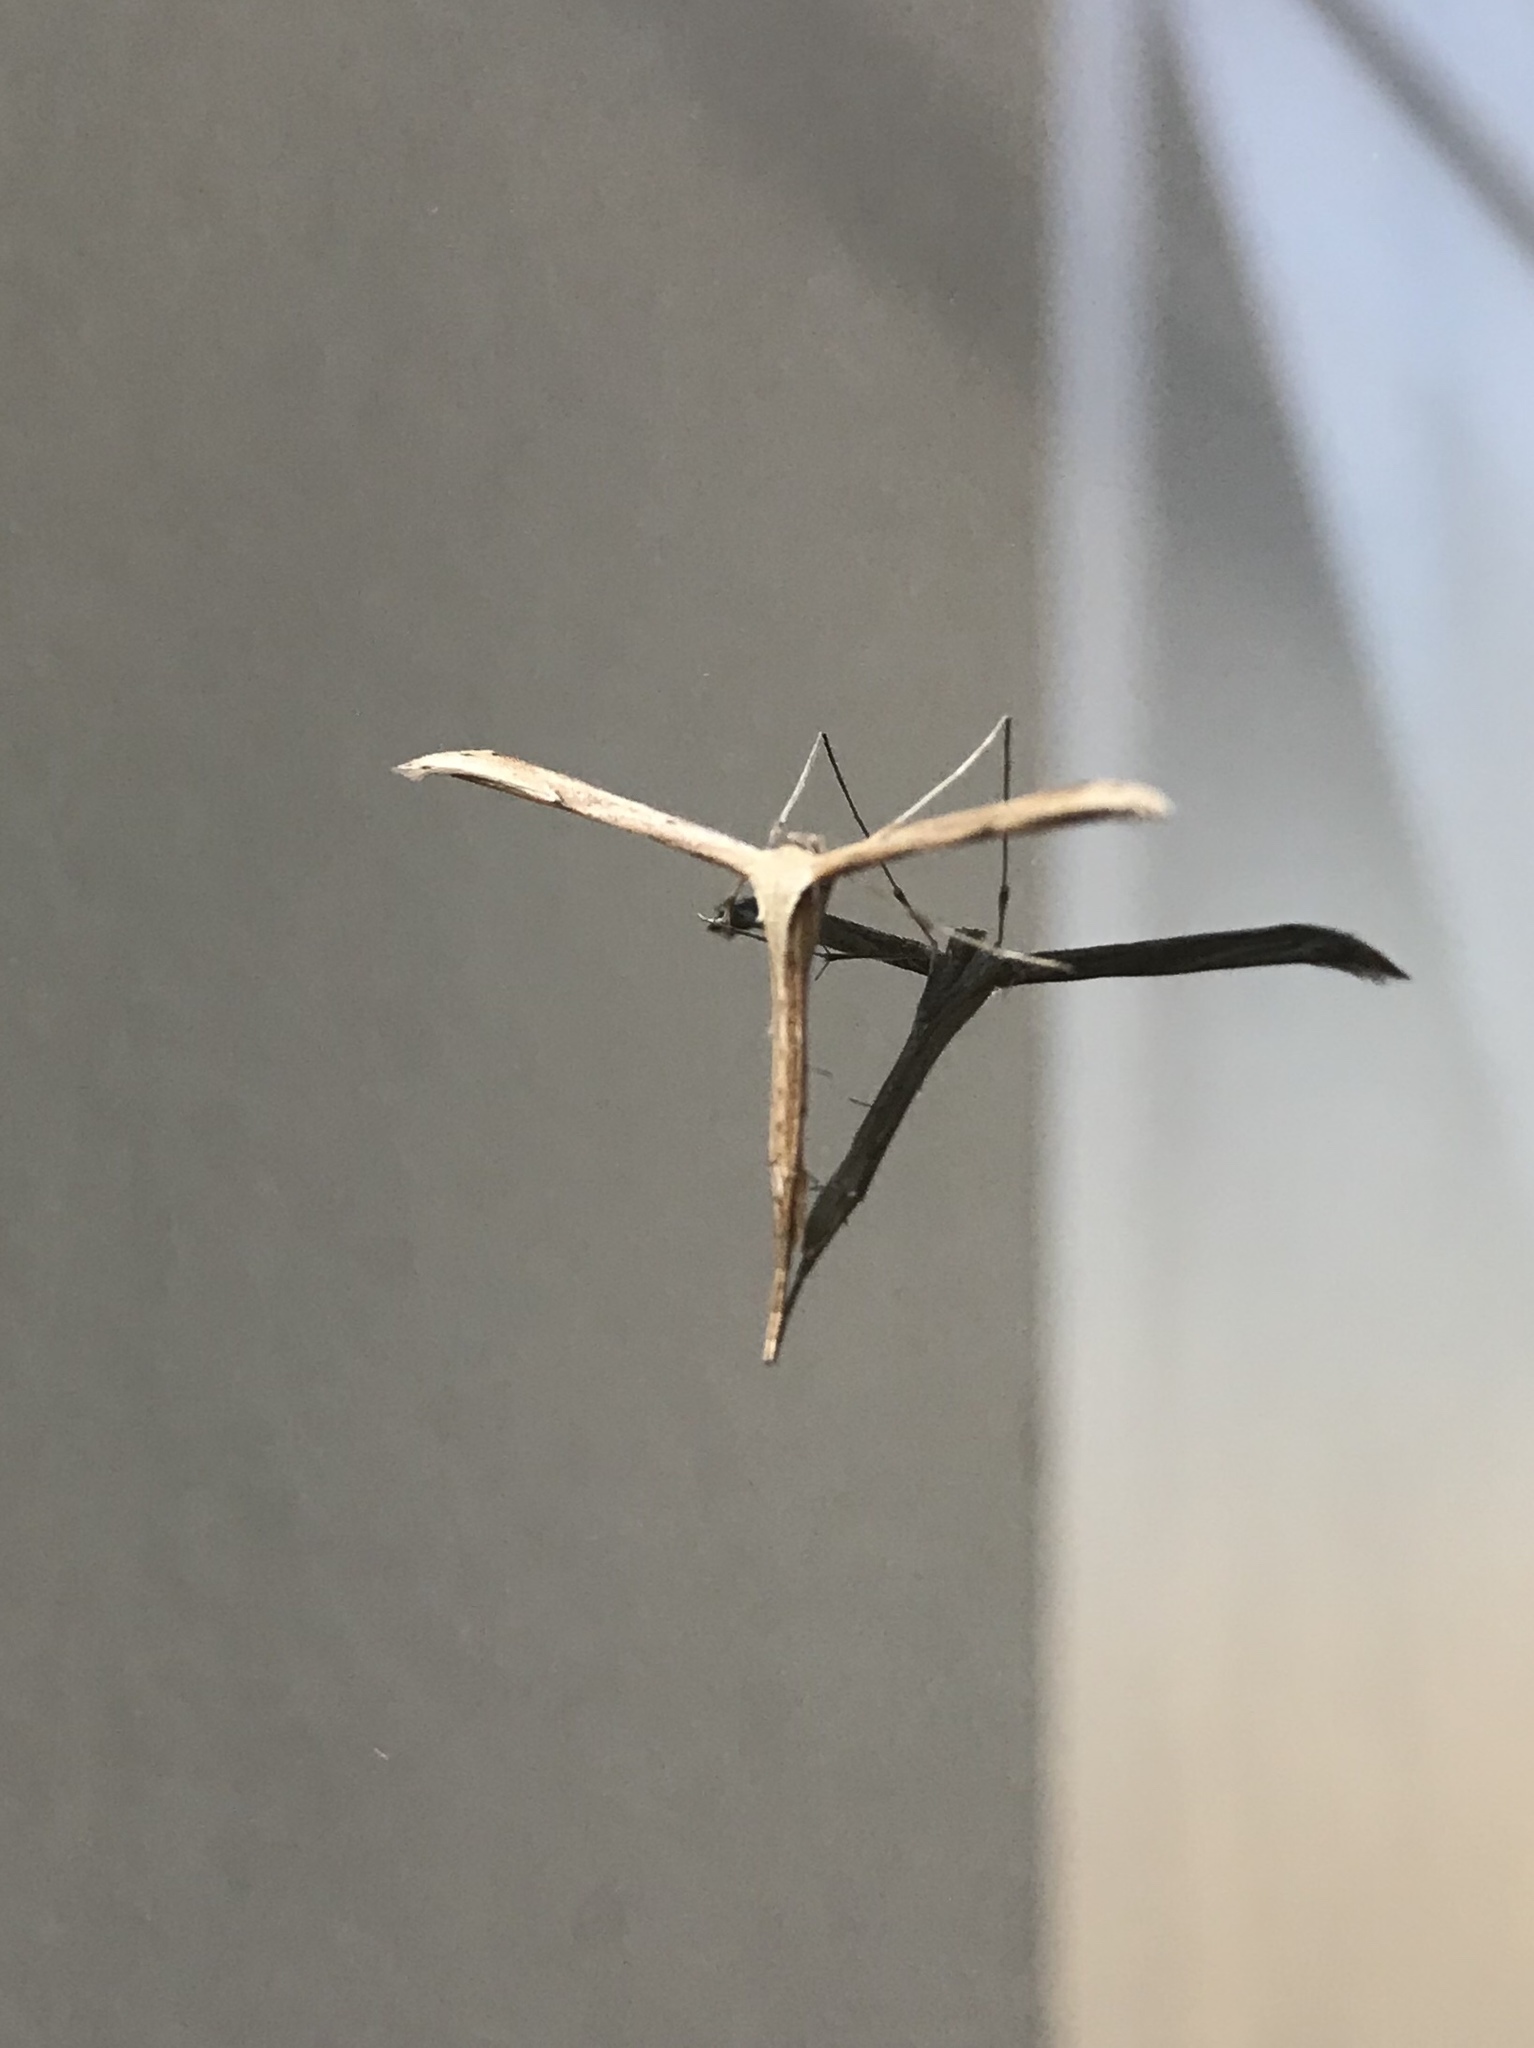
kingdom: Animalia
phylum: Arthropoda
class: Insecta
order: Lepidoptera
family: Pterophoridae
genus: Emmelina
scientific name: Emmelina monodactyla
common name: Common plume
